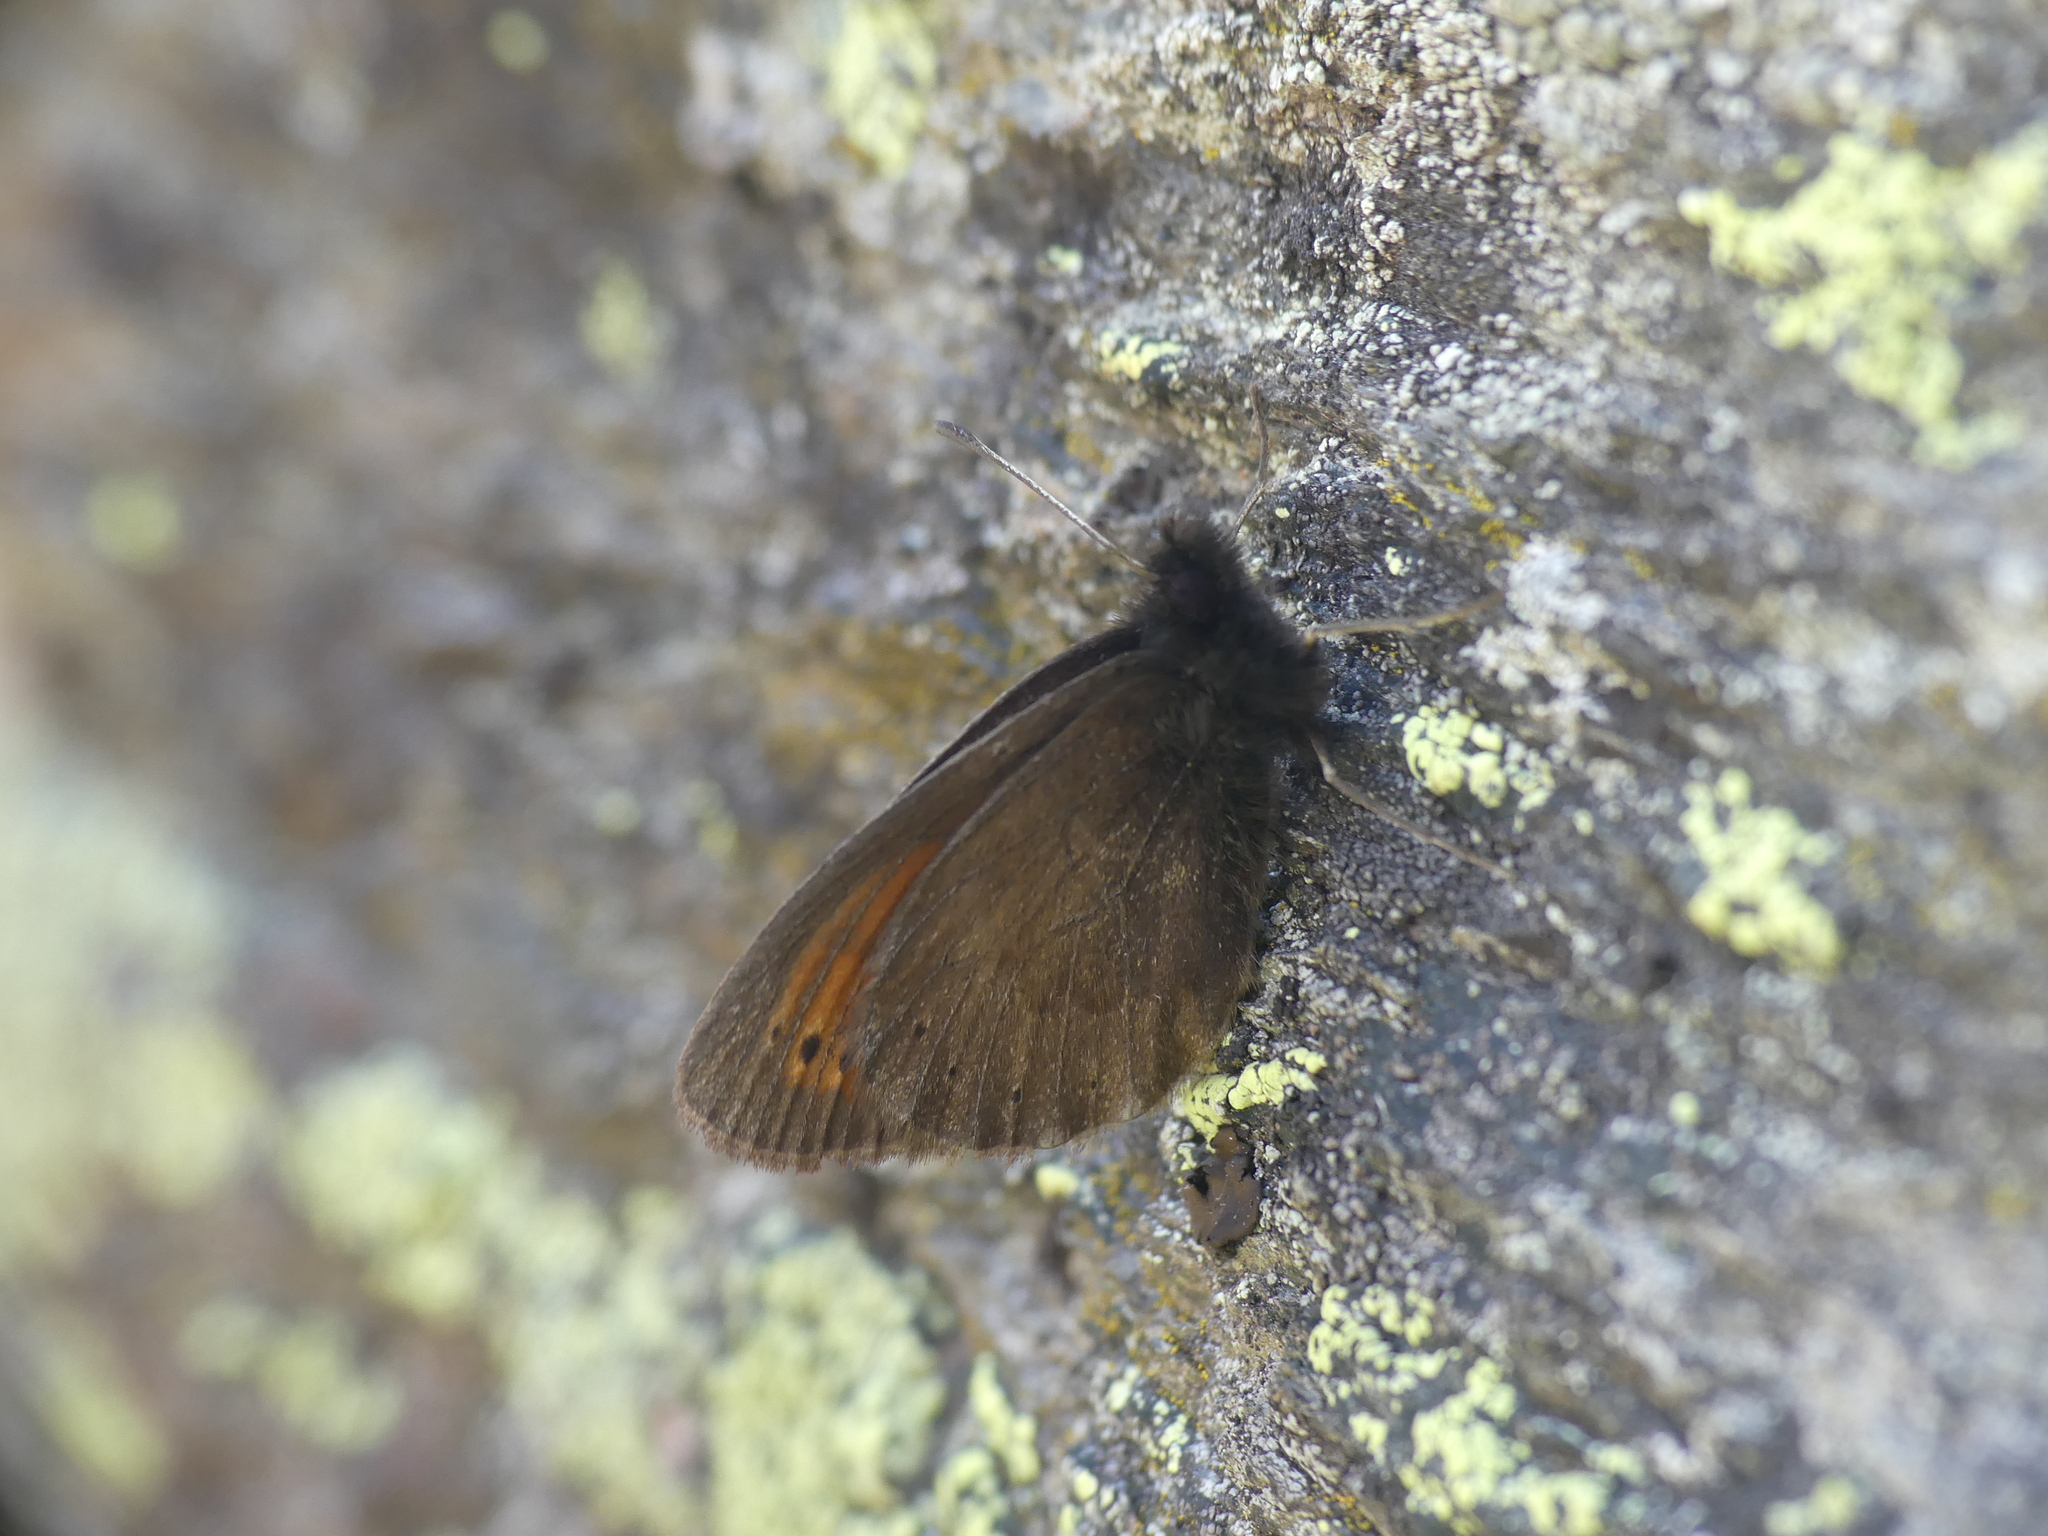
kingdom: Animalia
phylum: Arthropoda
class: Insecta
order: Lepidoptera
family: Nymphalidae
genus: Erebia
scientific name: Erebia christi
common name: Raetzer's ringlet
